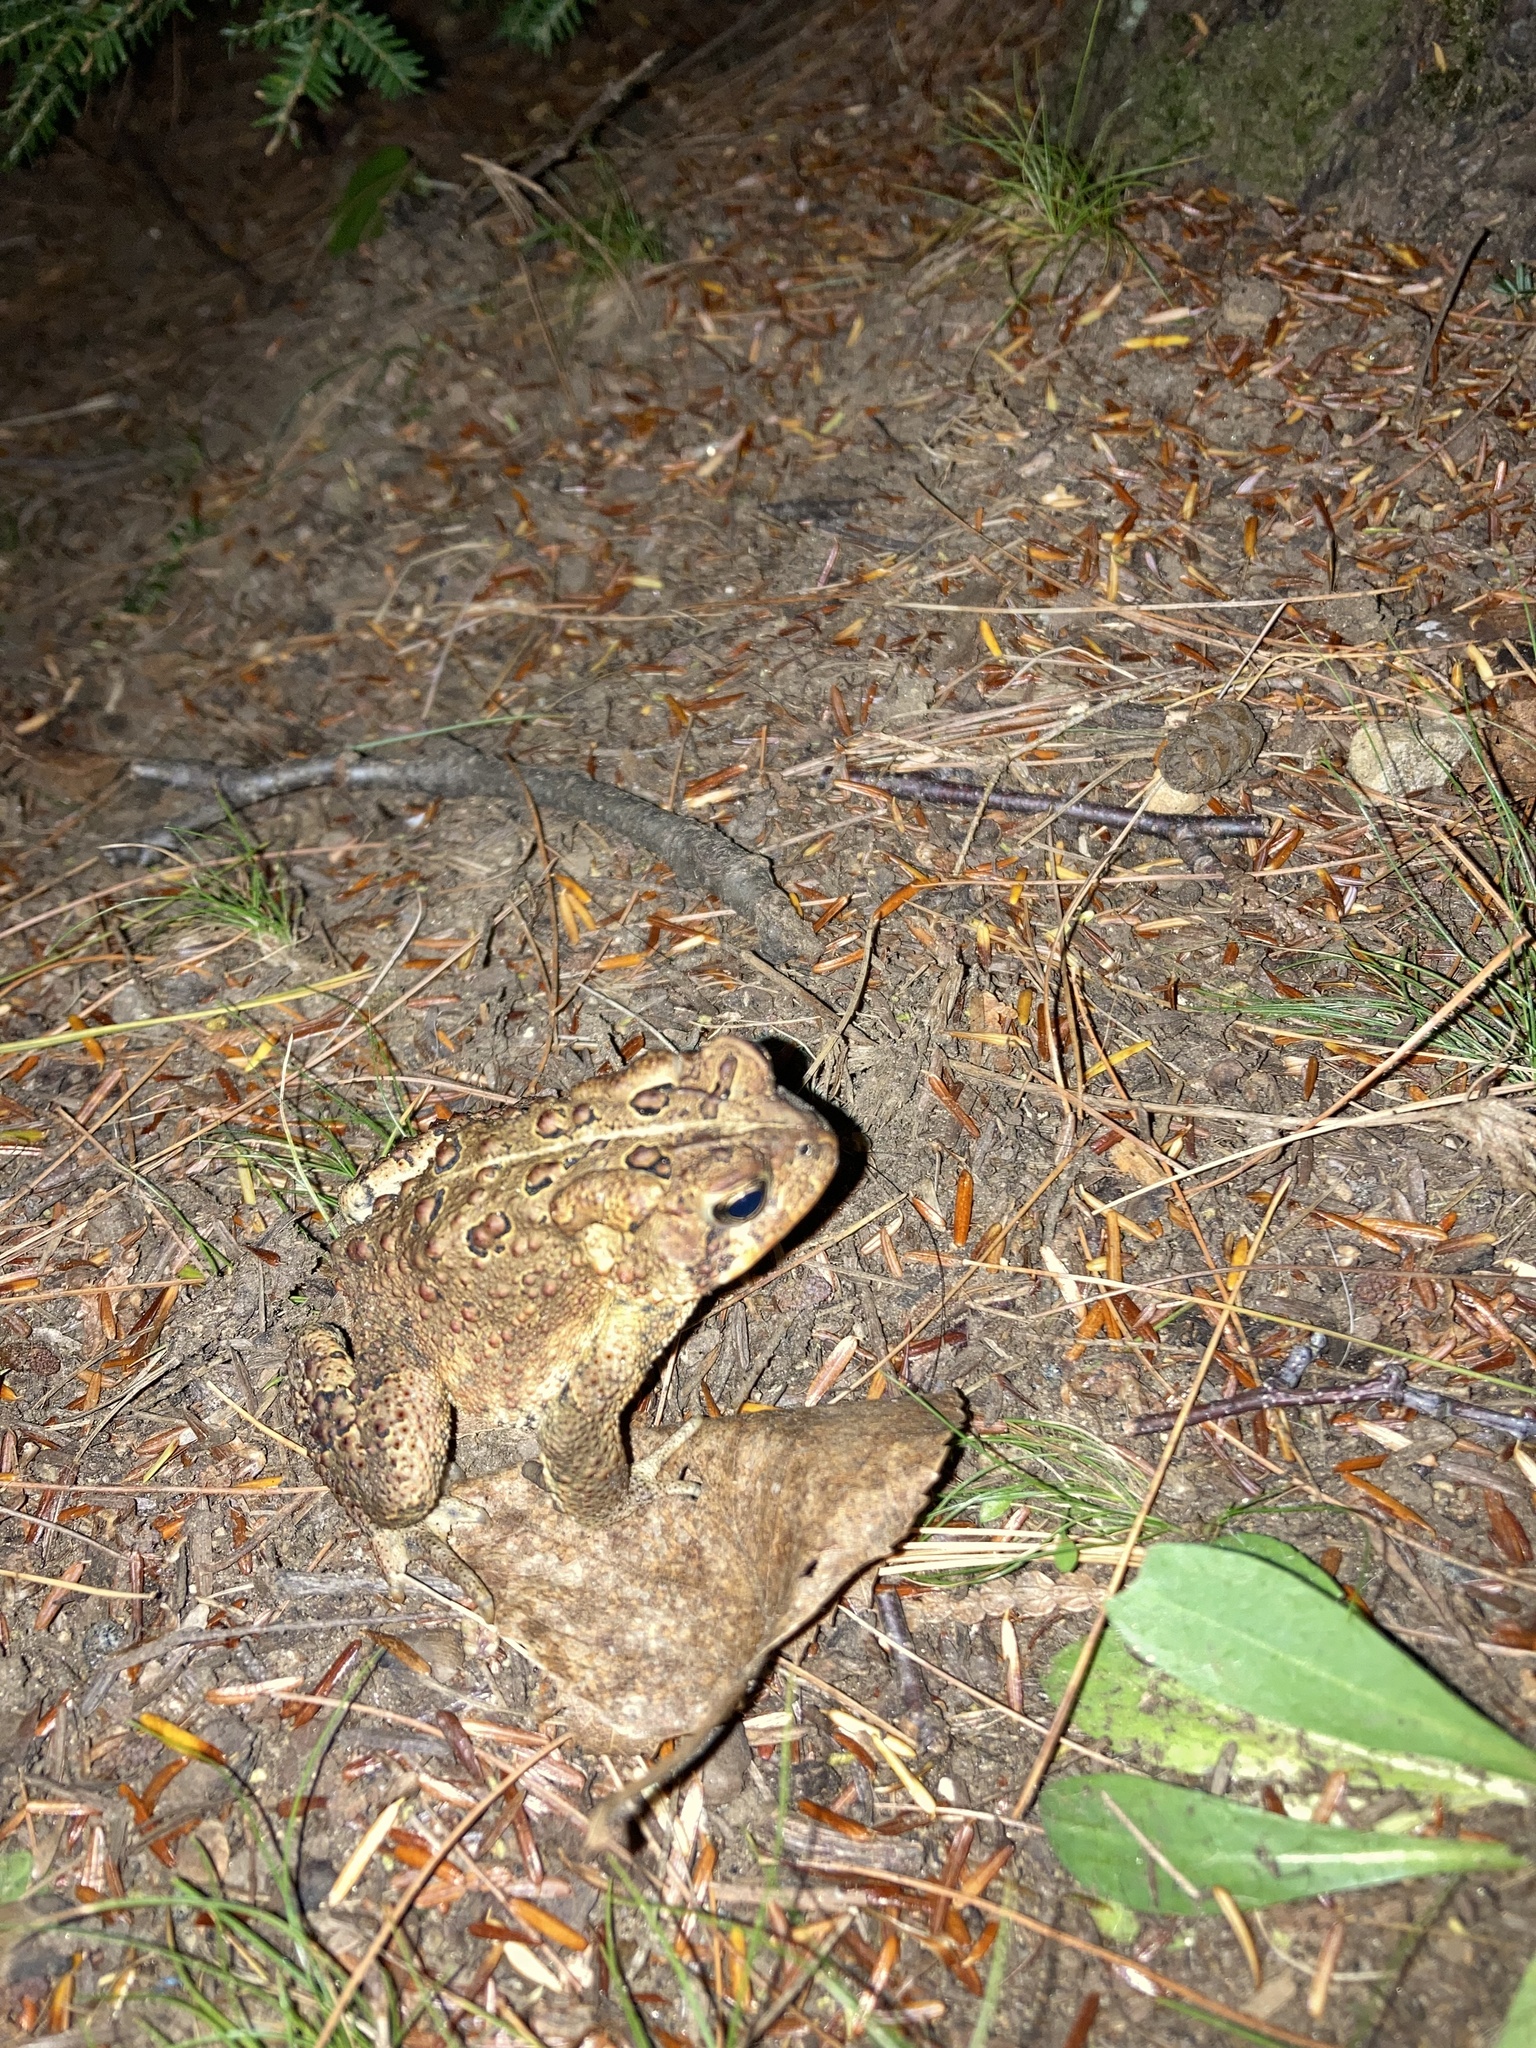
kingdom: Animalia
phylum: Chordata
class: Amphibia
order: Anura
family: Bufonidae
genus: Anaxyrus
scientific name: Anaxyrus americanus
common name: American toad
